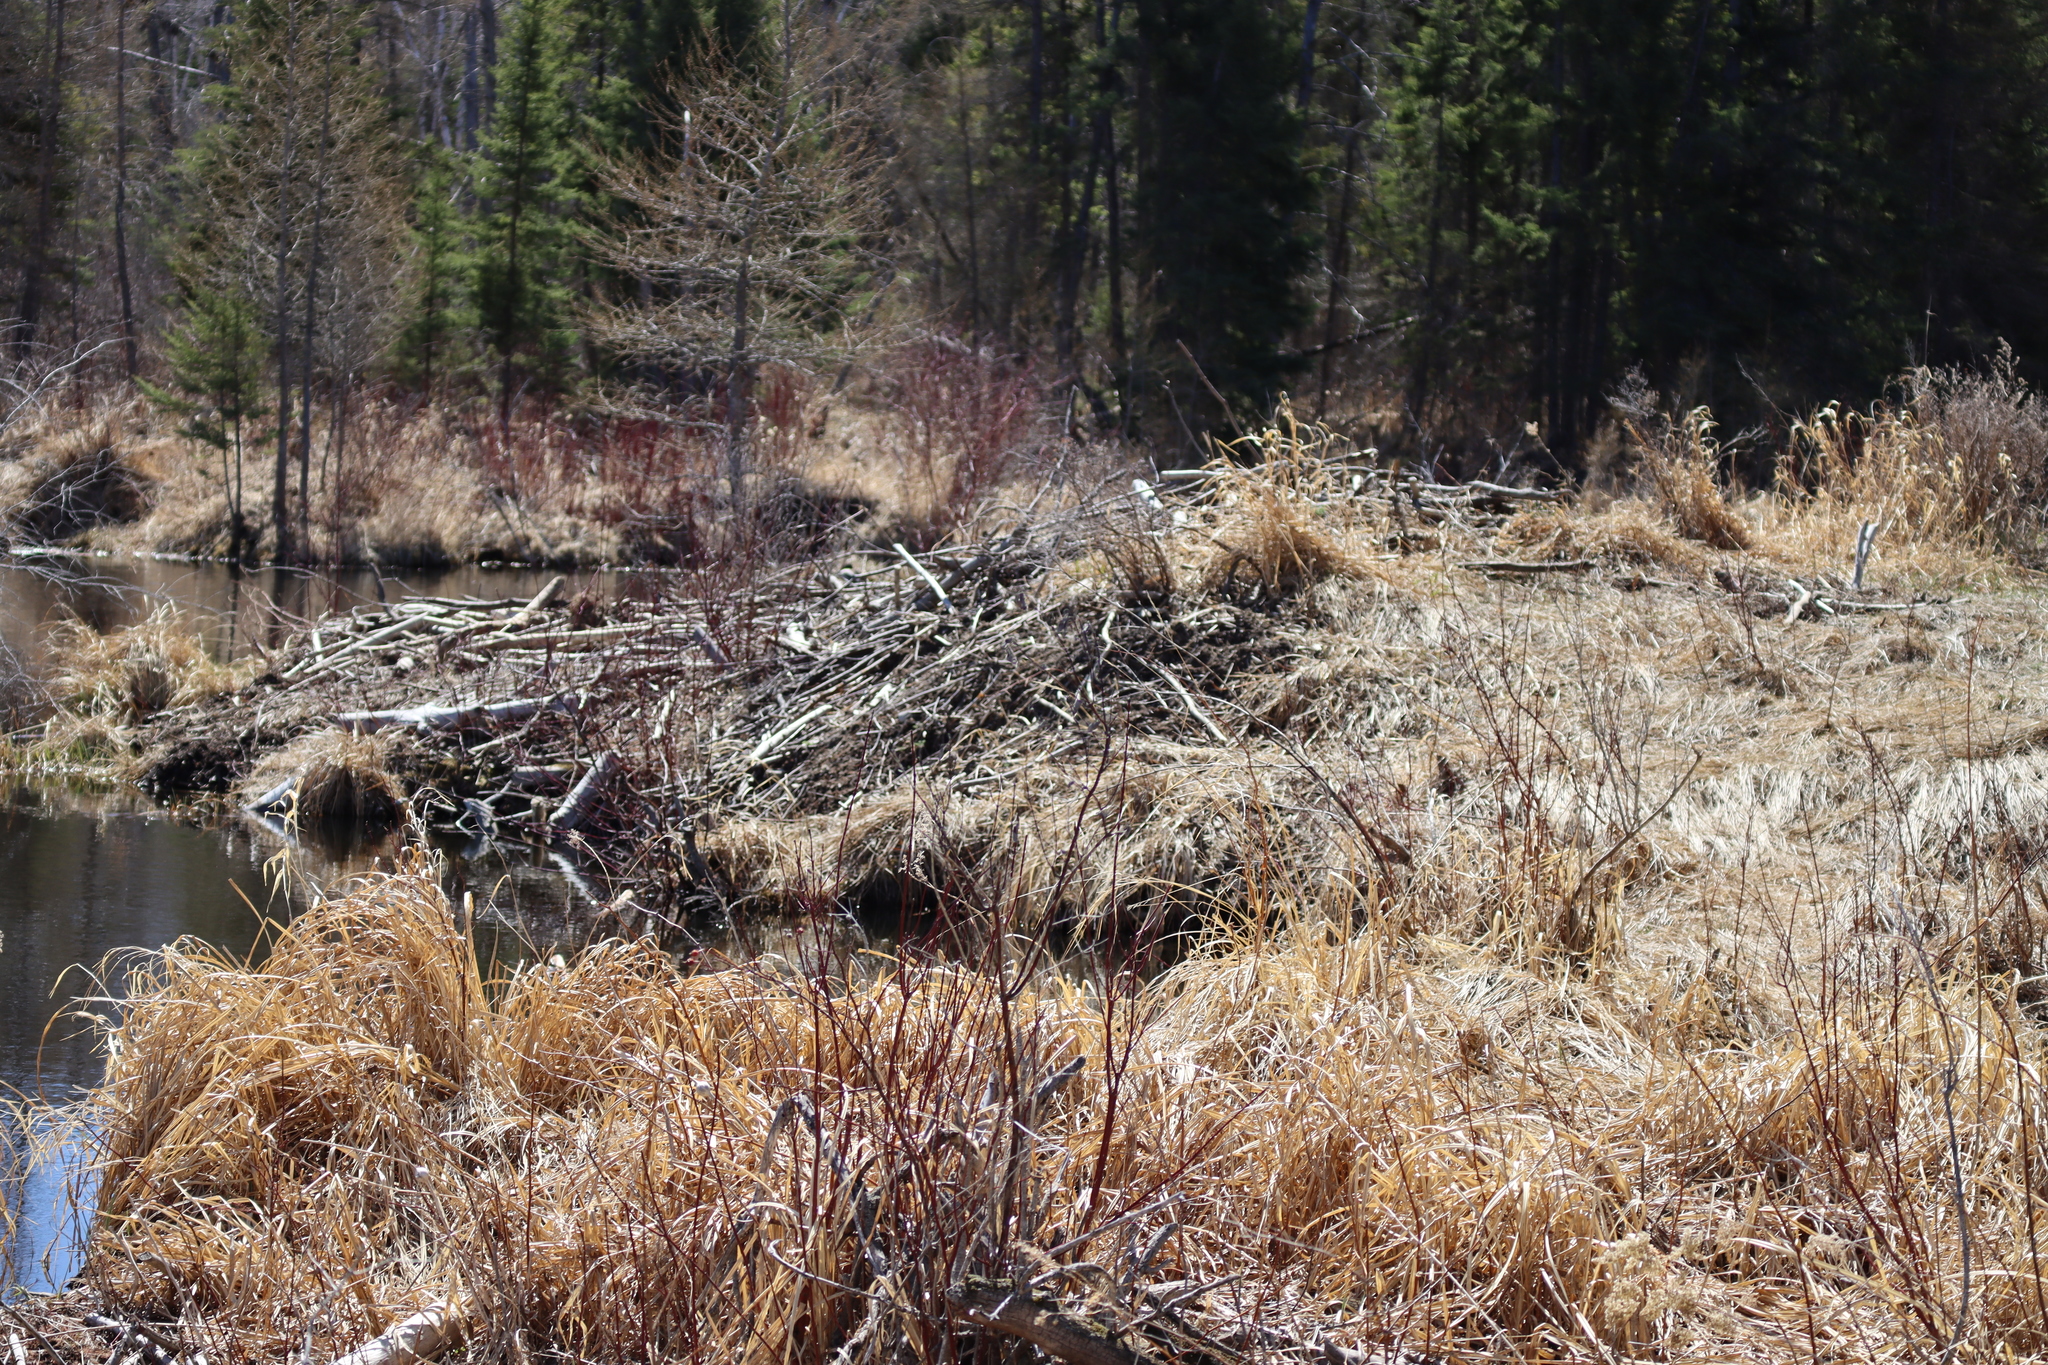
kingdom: Animalia
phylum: Chordata
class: Mammalia
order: Rodentia
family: Castoridae
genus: Castor
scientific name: Castor canadensis
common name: American beaver
